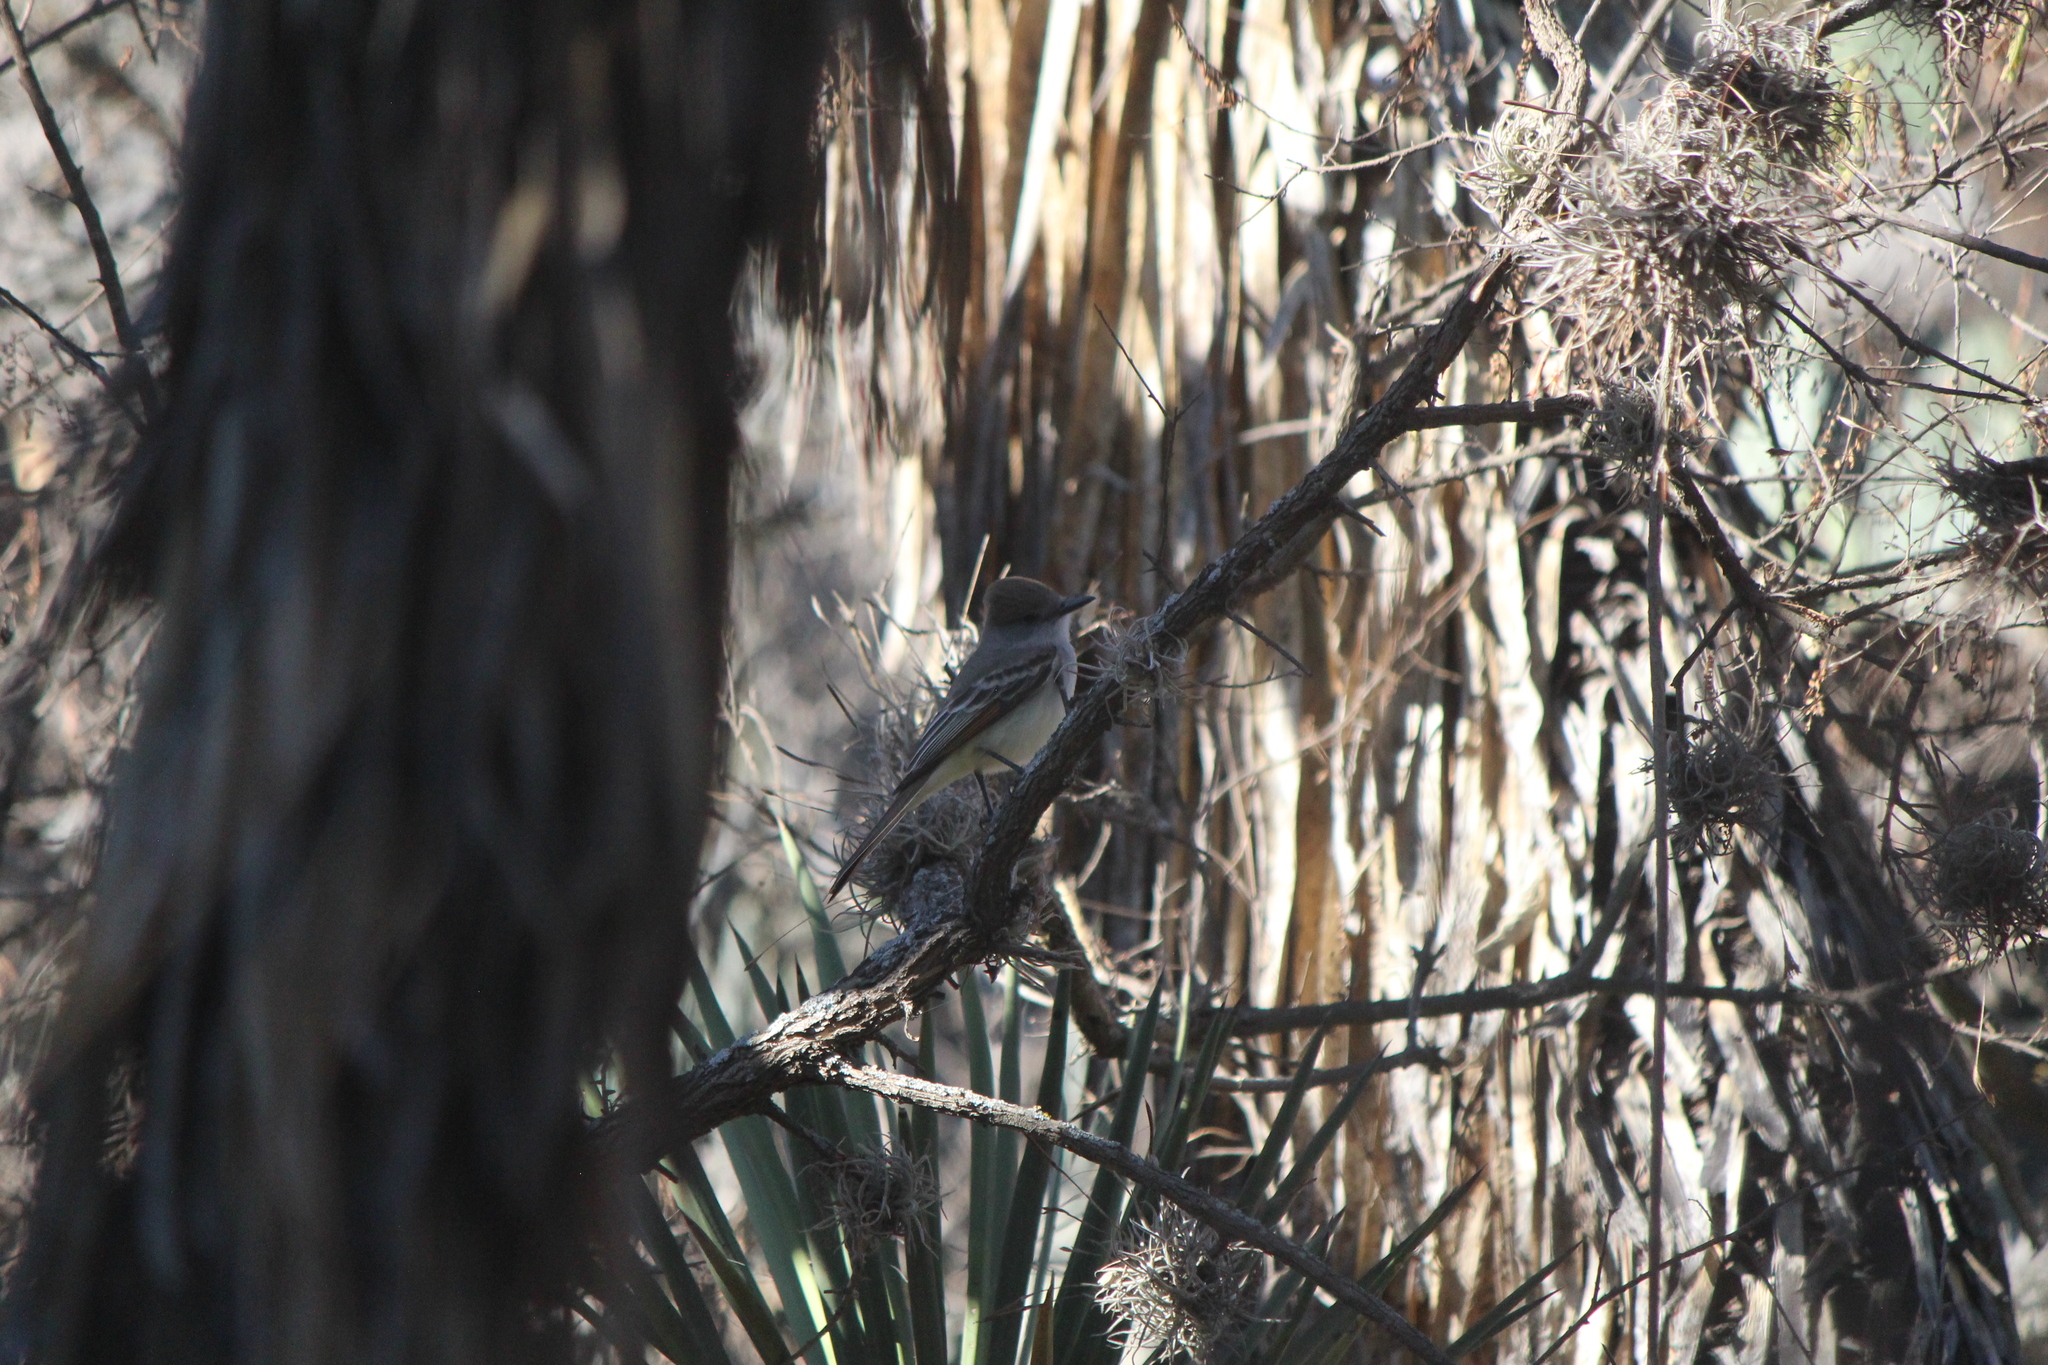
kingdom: Animalia
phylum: Chordata
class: Aves
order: Passeriformes
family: Tyrannidae
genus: Myiarchus
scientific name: Myiarchus cinerascens
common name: Ash-throated flycatcher
